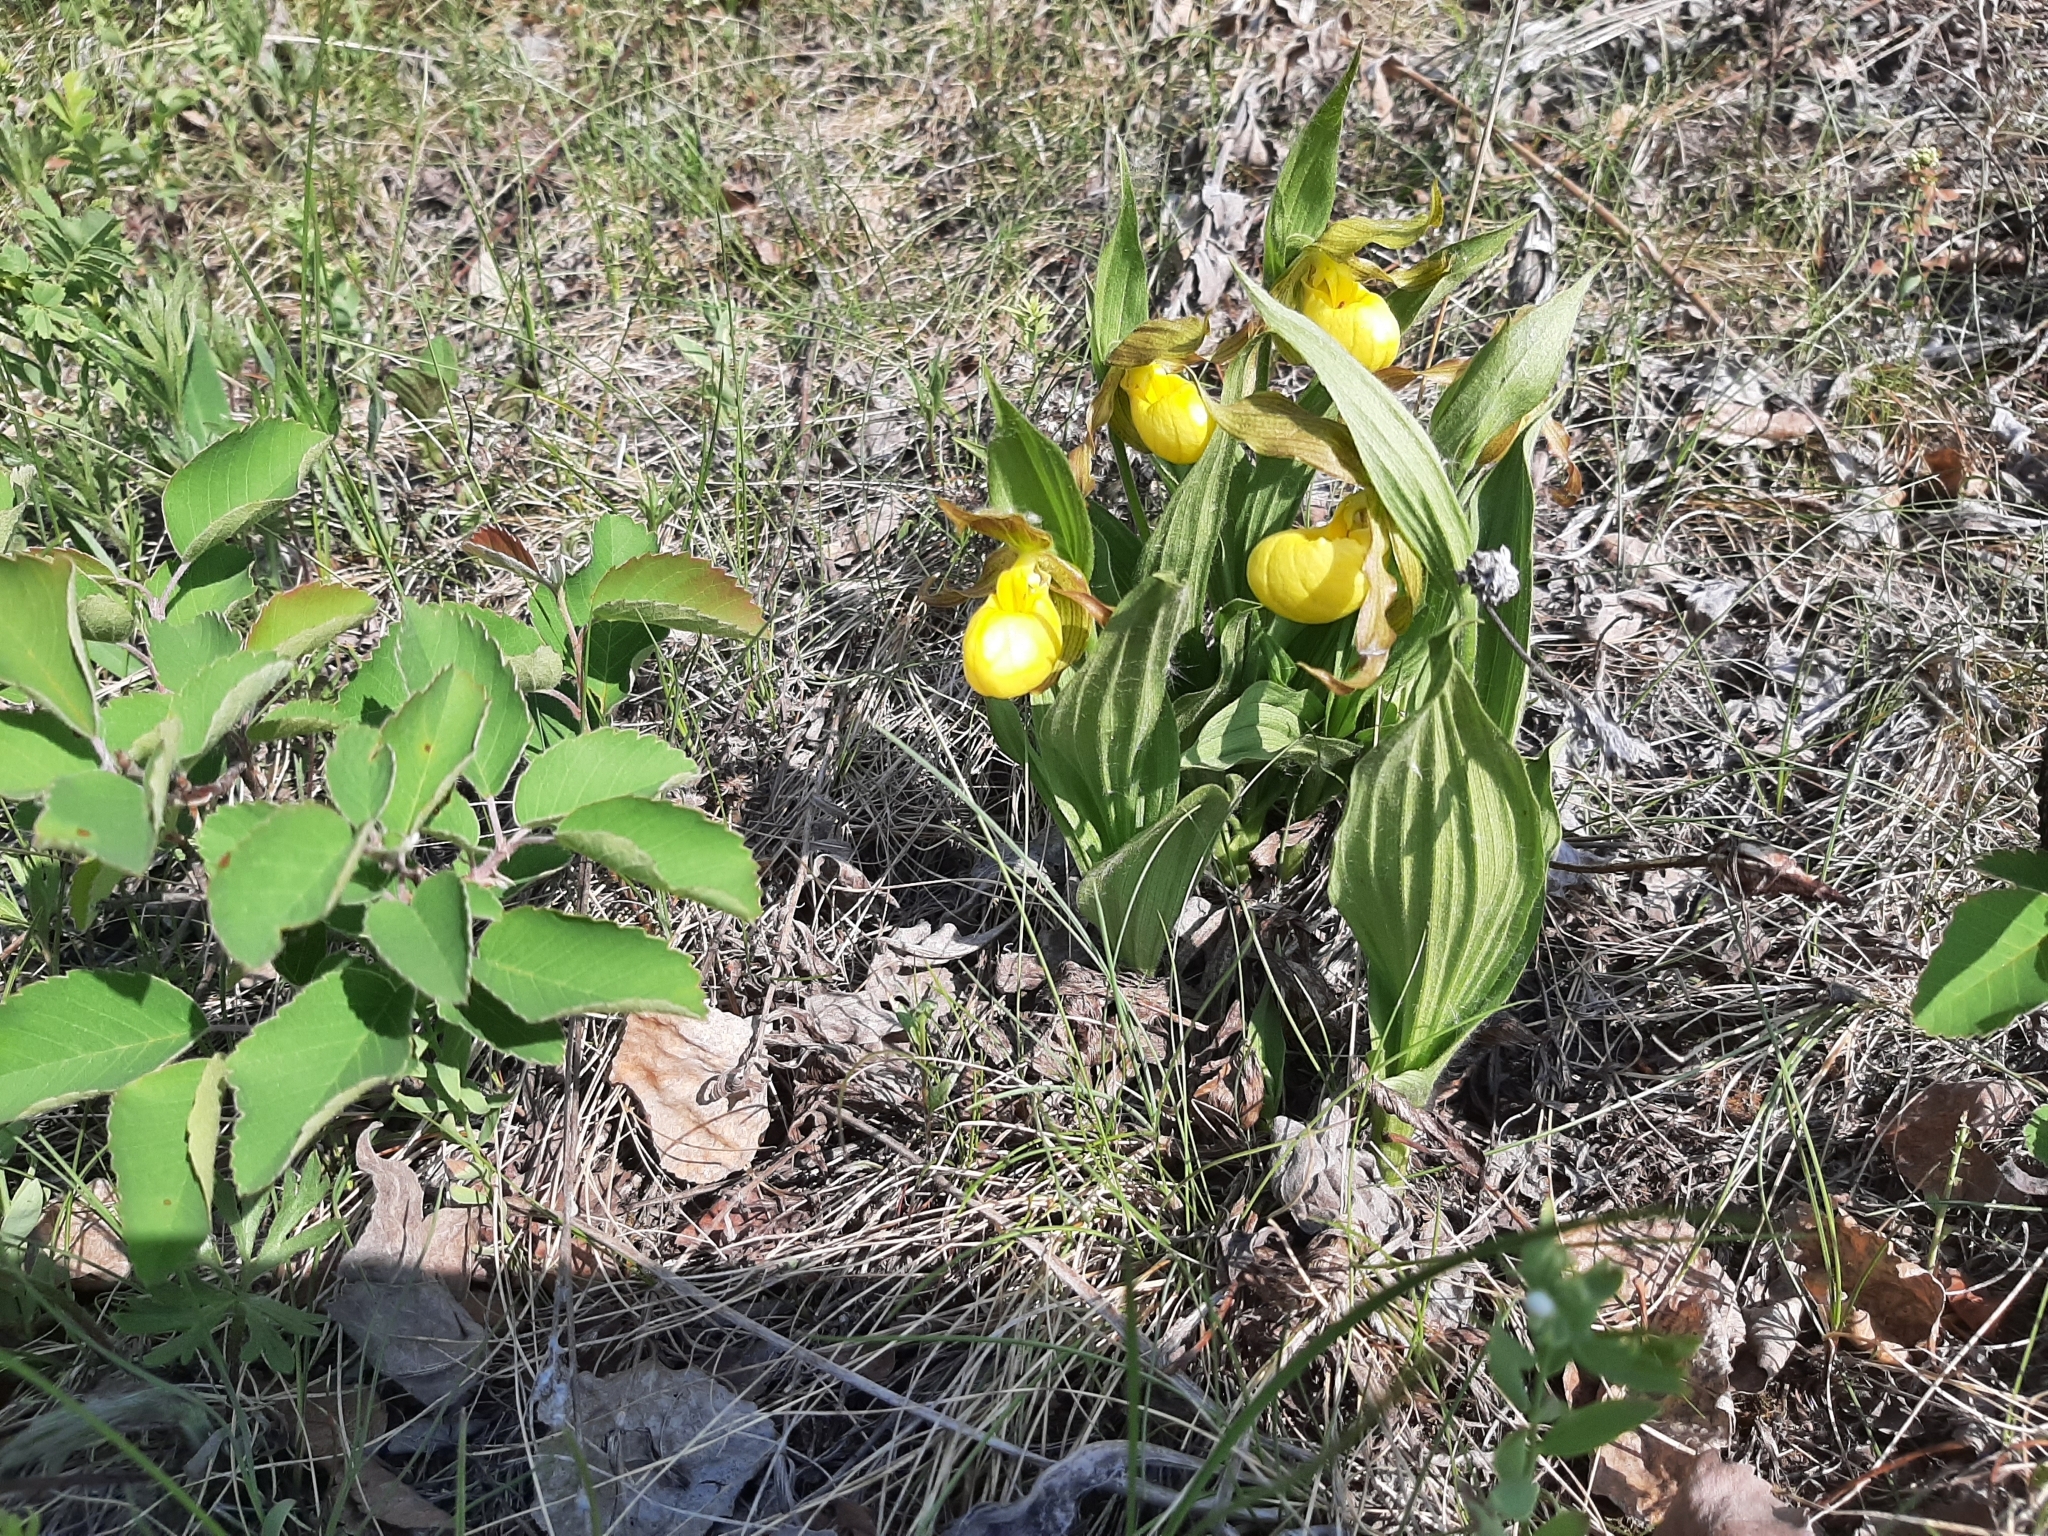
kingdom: Plantae
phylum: Tracheophyta
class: Liliopsida
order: Asparagales
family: Orchidaceae
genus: Cypripedium
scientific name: Cypripedium parviflorum
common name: American yellow lady's-slipper
